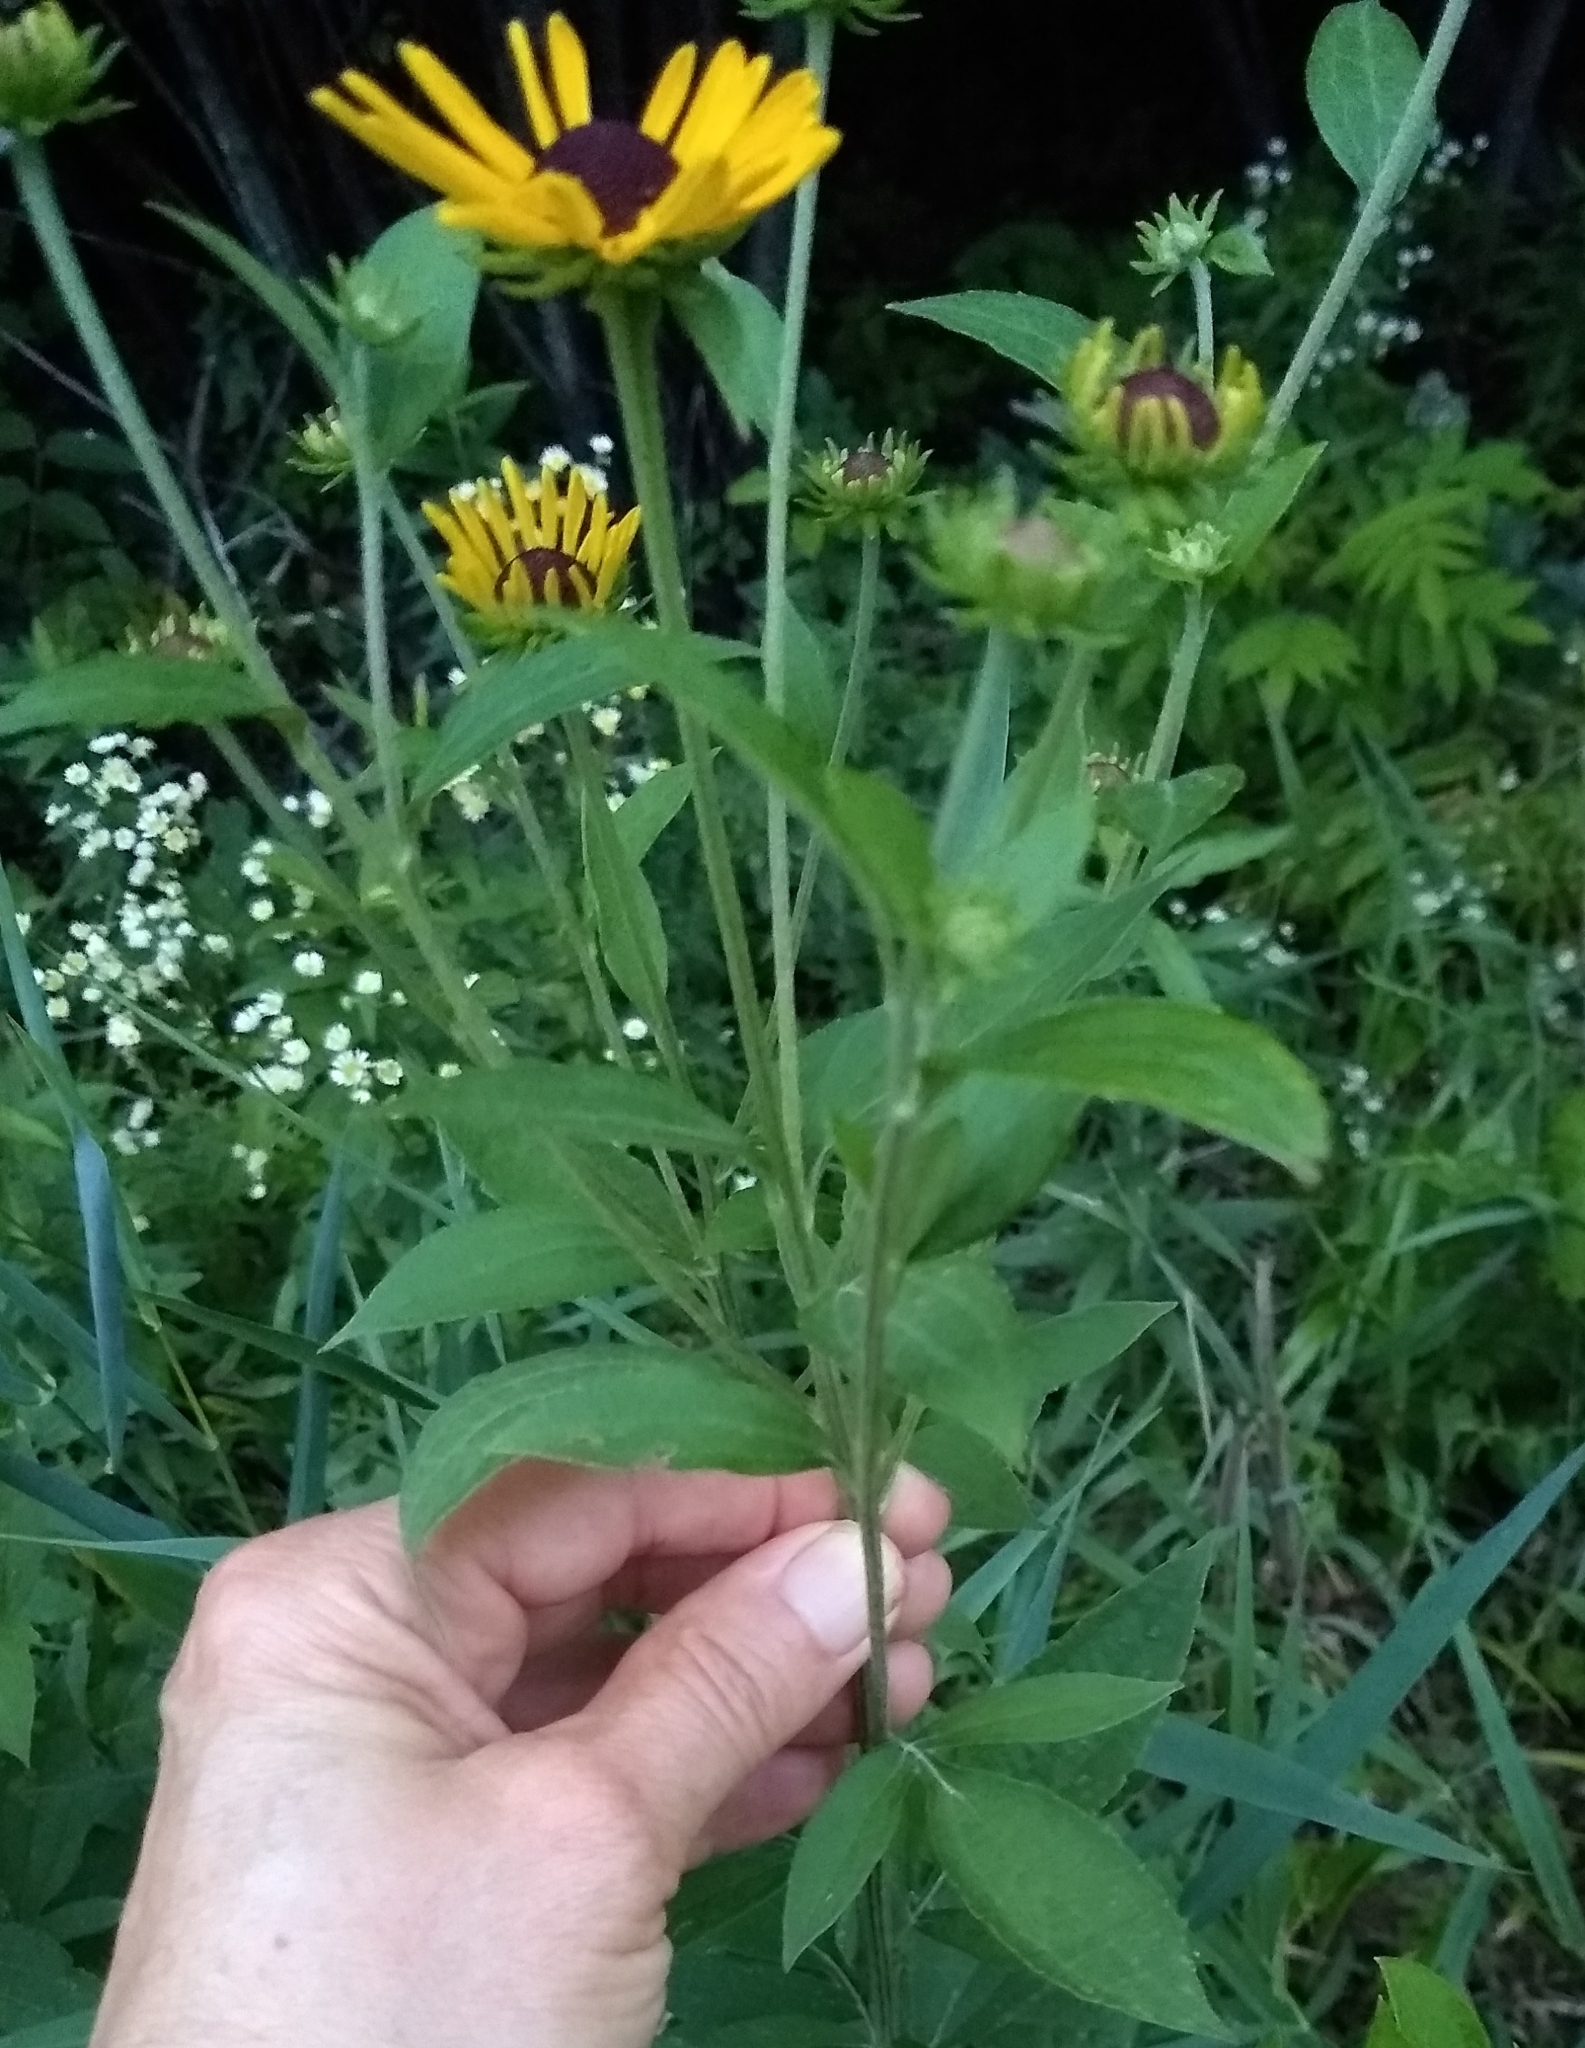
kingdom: Plantae
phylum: Tracheophyta
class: Magnoliopsida
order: Asterales
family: Asteraceae
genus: Rudbeckia
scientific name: Rudbeckia subtomentosa
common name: Sweet coneflower
